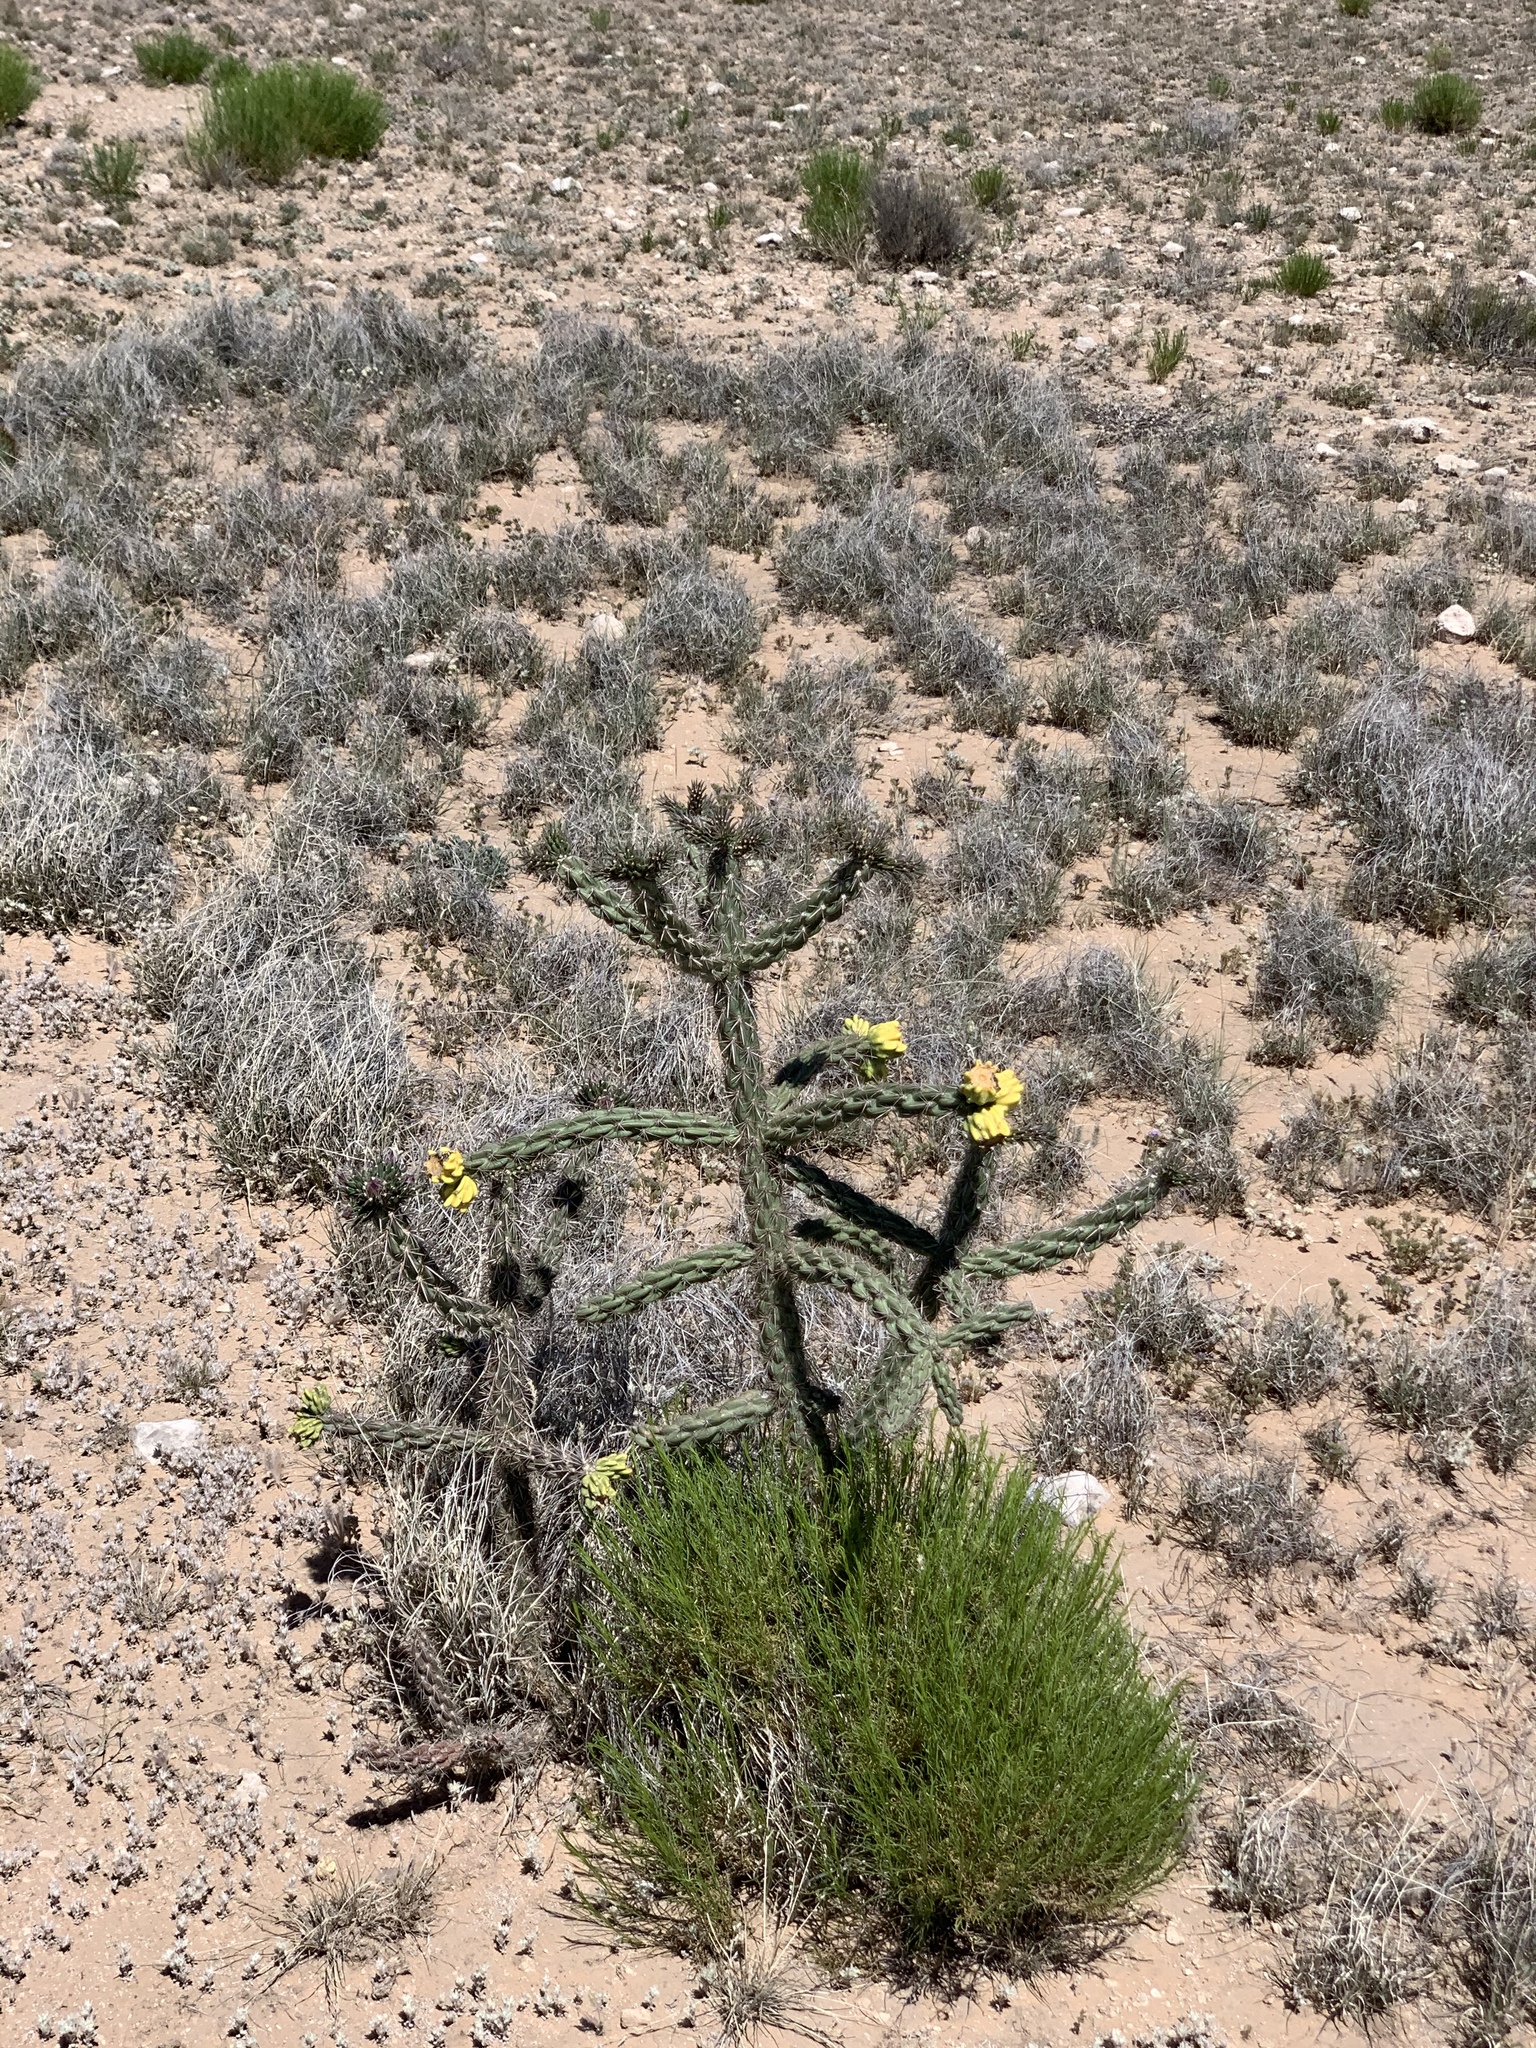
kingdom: Plantae
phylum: Tracheophyta
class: Magnoliopsida
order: Caryophyllales
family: Cactaceae
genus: Cylindropuntia
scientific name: Cylindropuntia imbricata
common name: Candelabrum cactus
